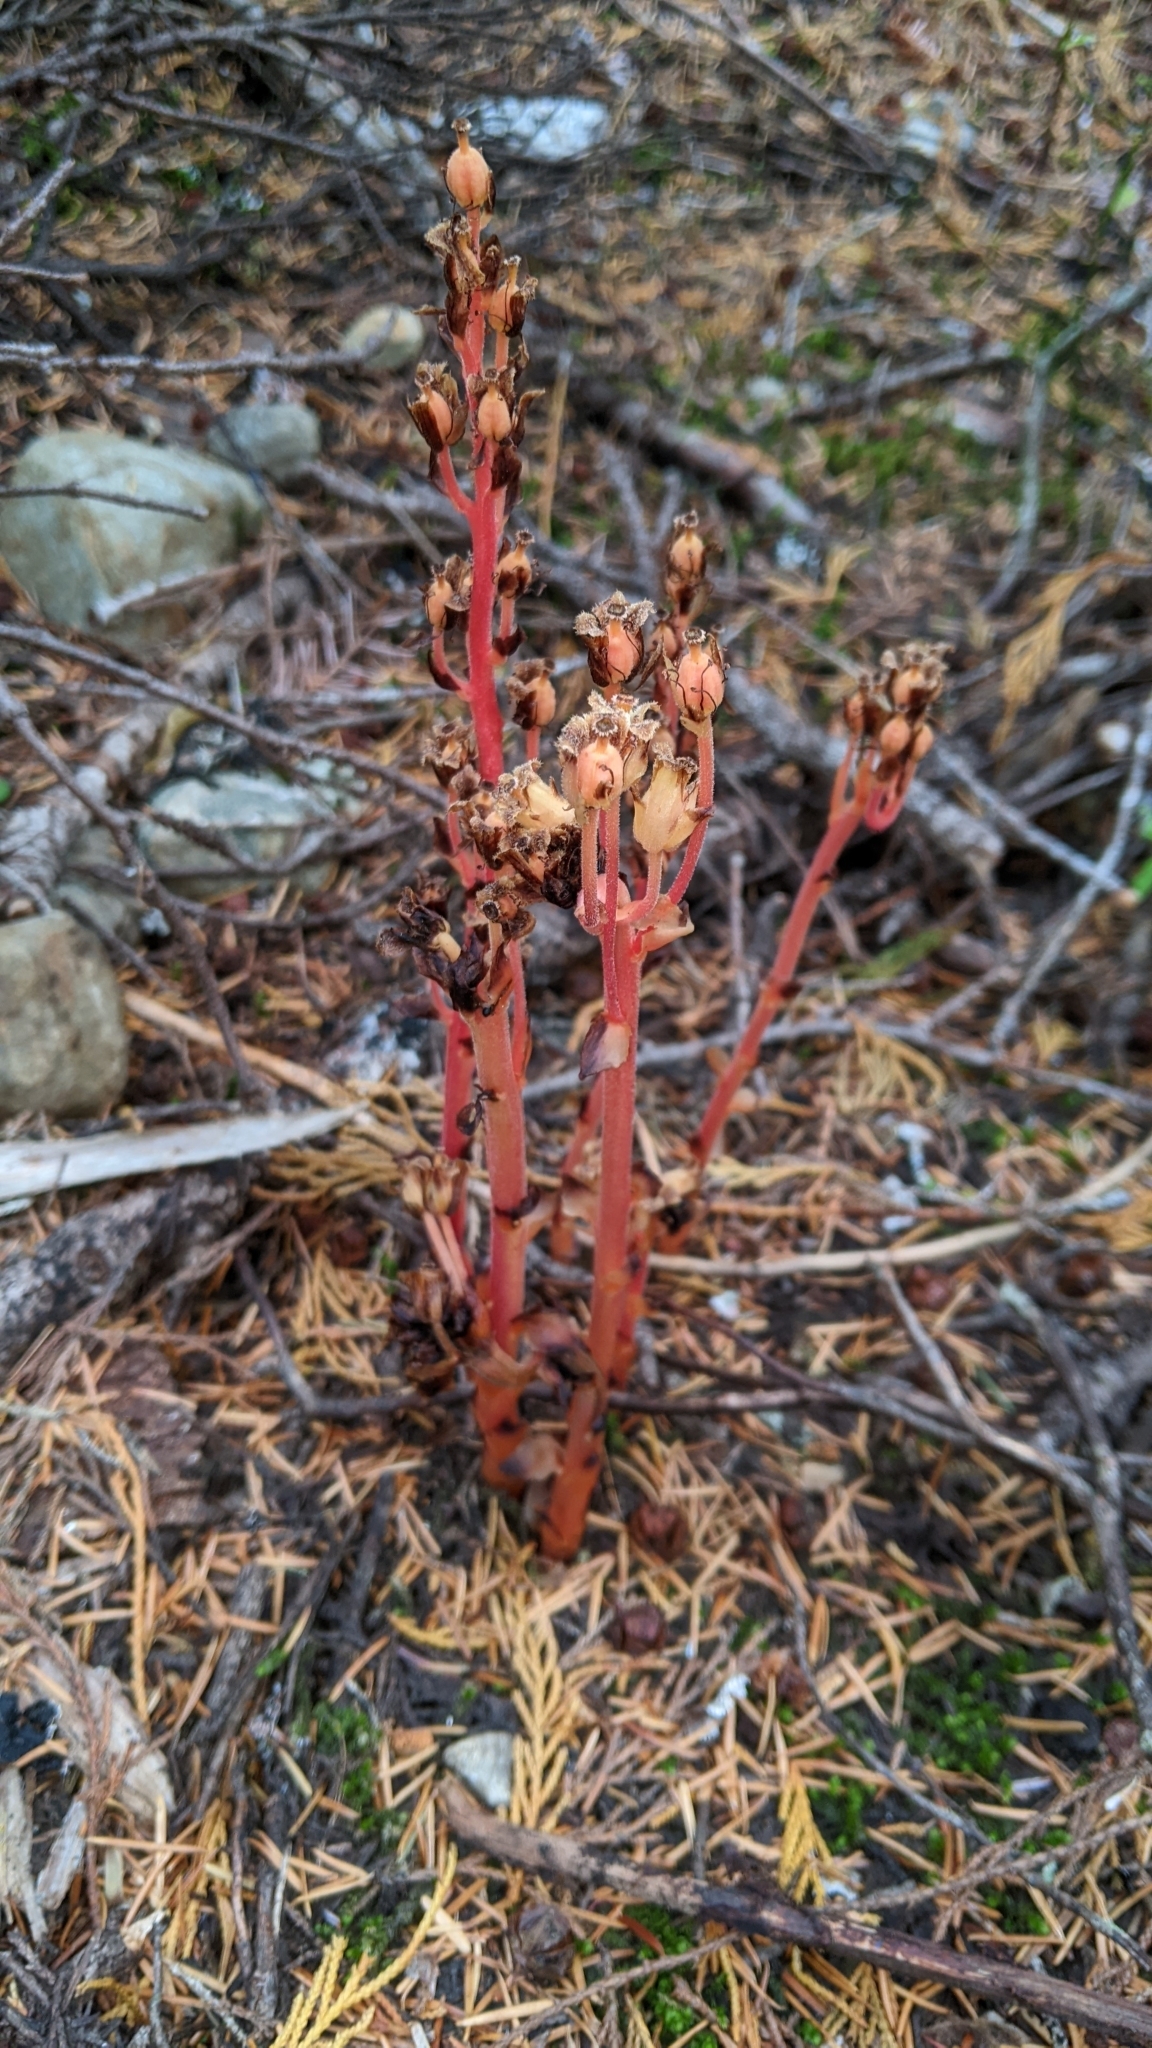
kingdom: Plantae
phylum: Tracheophyta
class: Magnoliopsida
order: Ericales
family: Ericaceae
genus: Hypopitys
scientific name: Hypopitys monotropa
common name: Yellow bird's-nest
